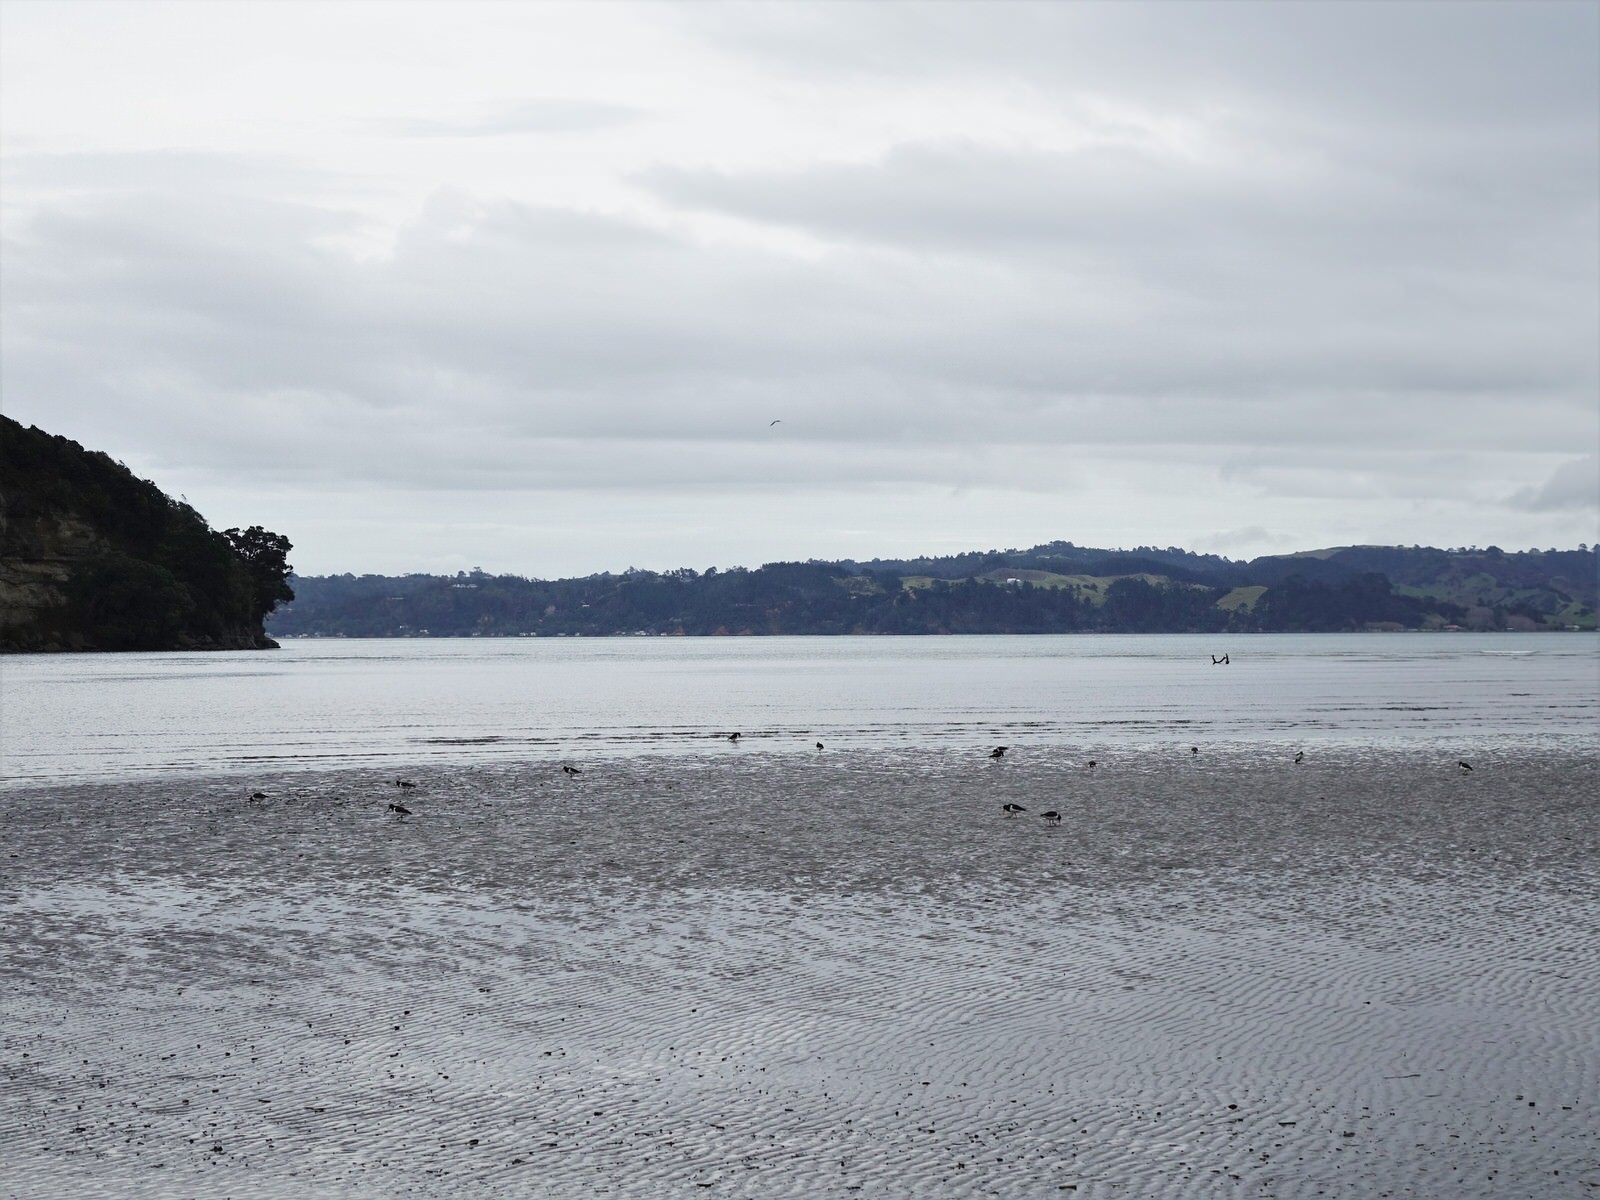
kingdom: Animalia
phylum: Chordata
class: Aves
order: Charadriiformes
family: Haematopodidae
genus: Haematopus
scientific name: Haematopus finschi
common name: South island oystercatcher
